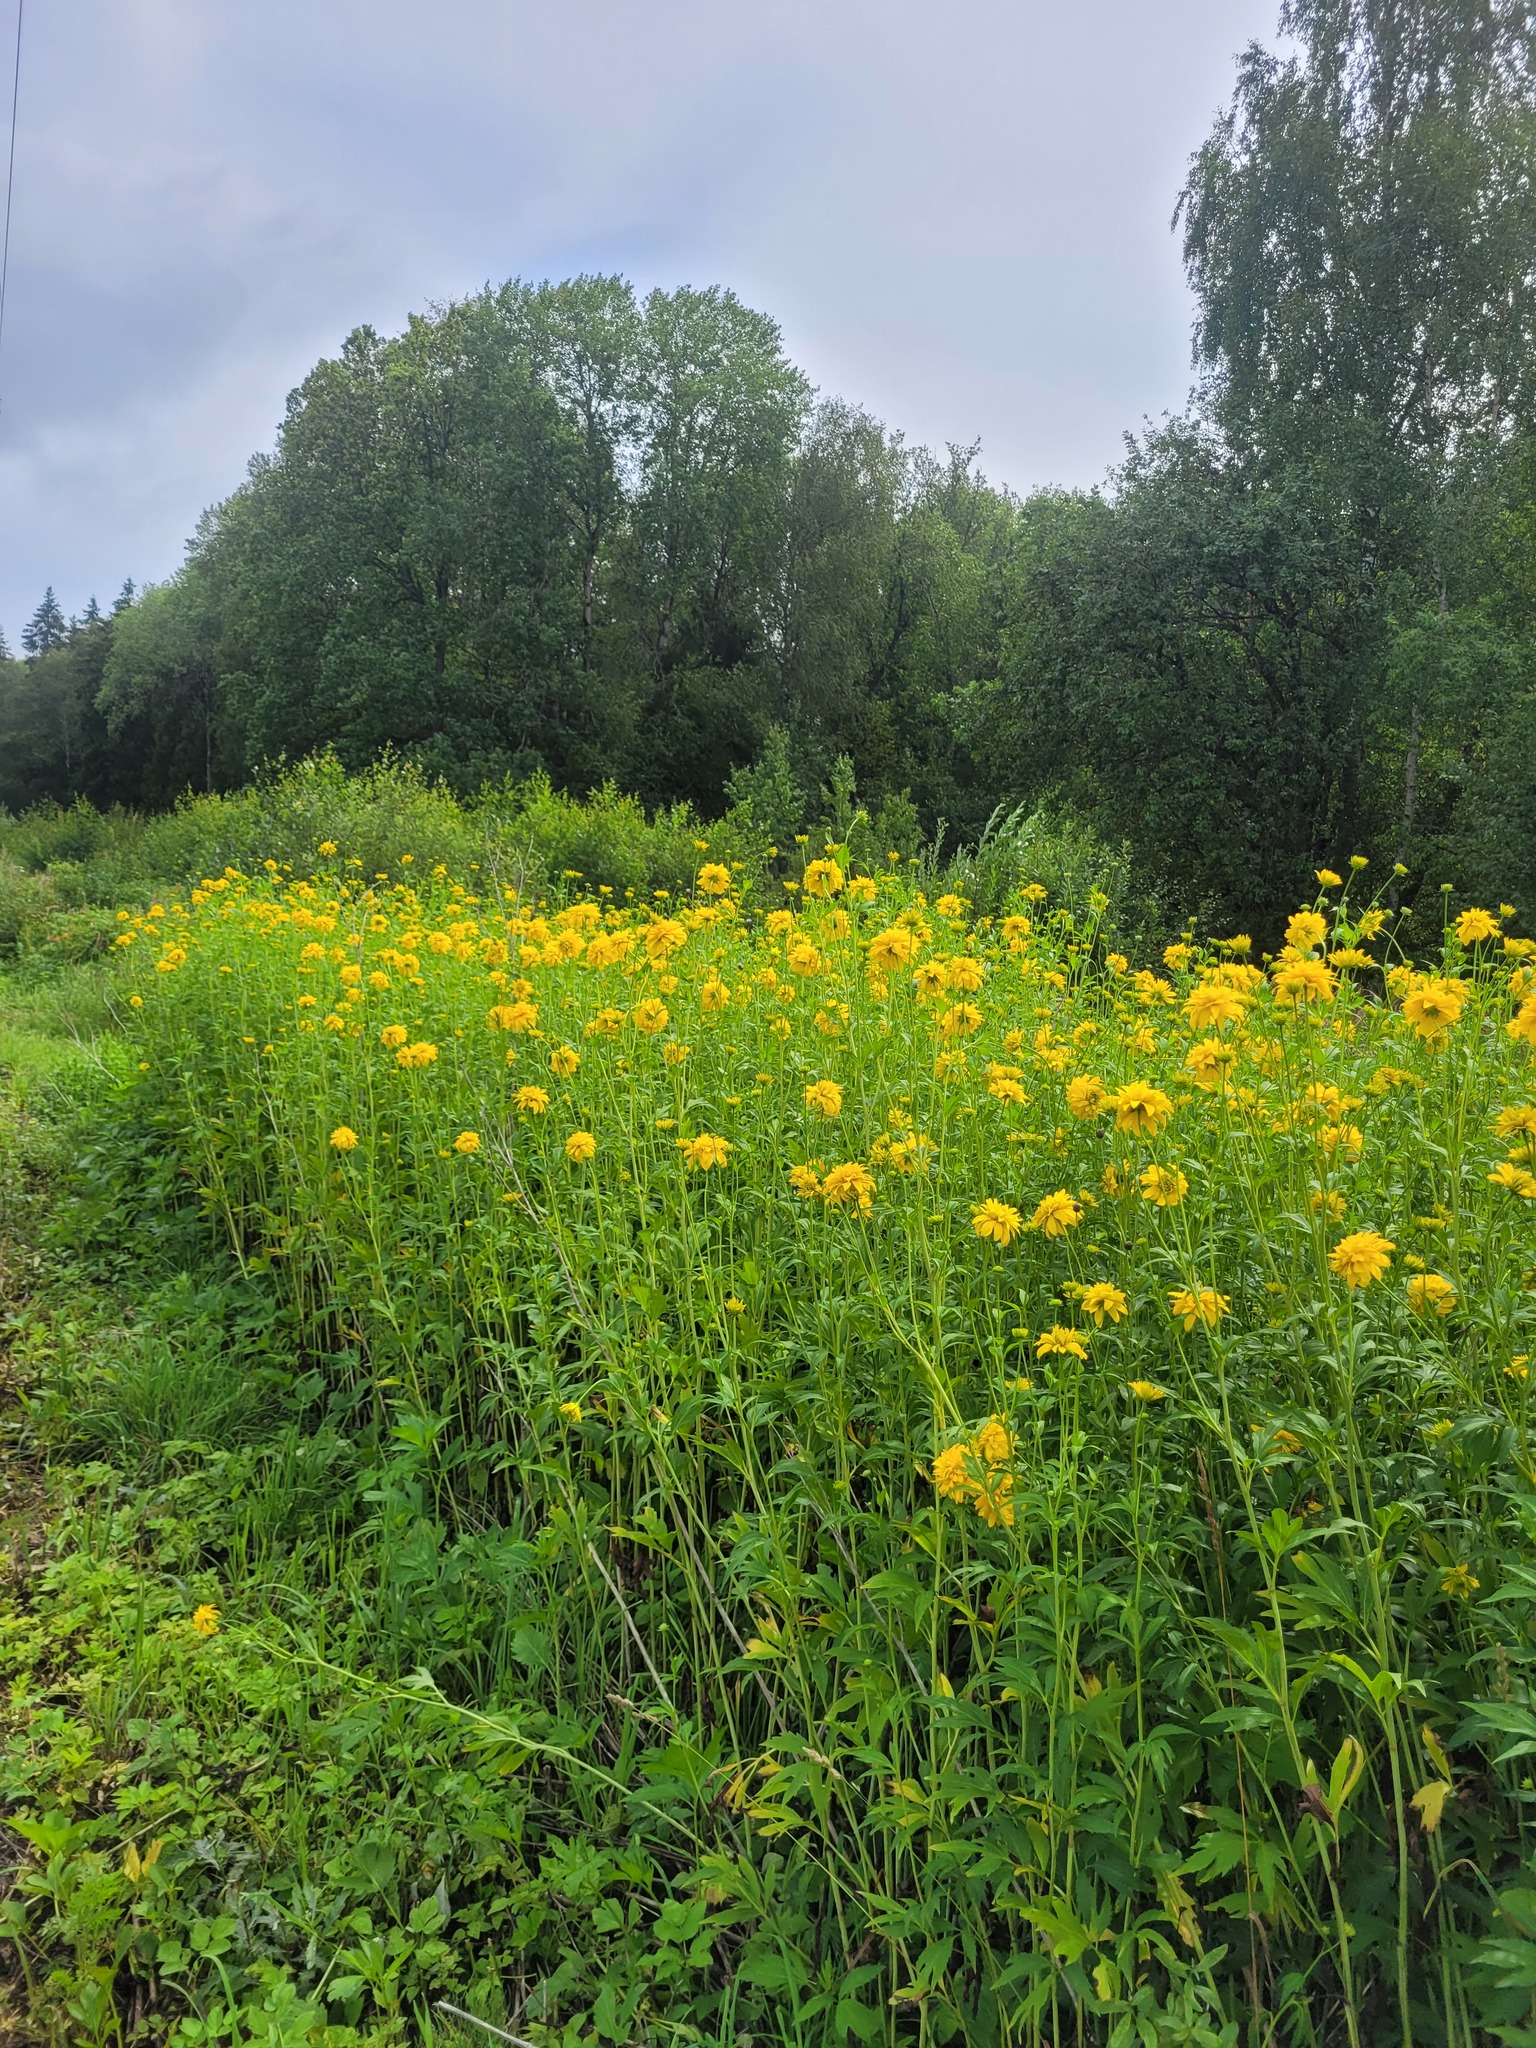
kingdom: Plantae
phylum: Tracheophyta
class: Magnoliopsida
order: Asterales
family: Asteraceae
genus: Rudbeckia
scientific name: Rudbeckia laciniata
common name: Coneflower
